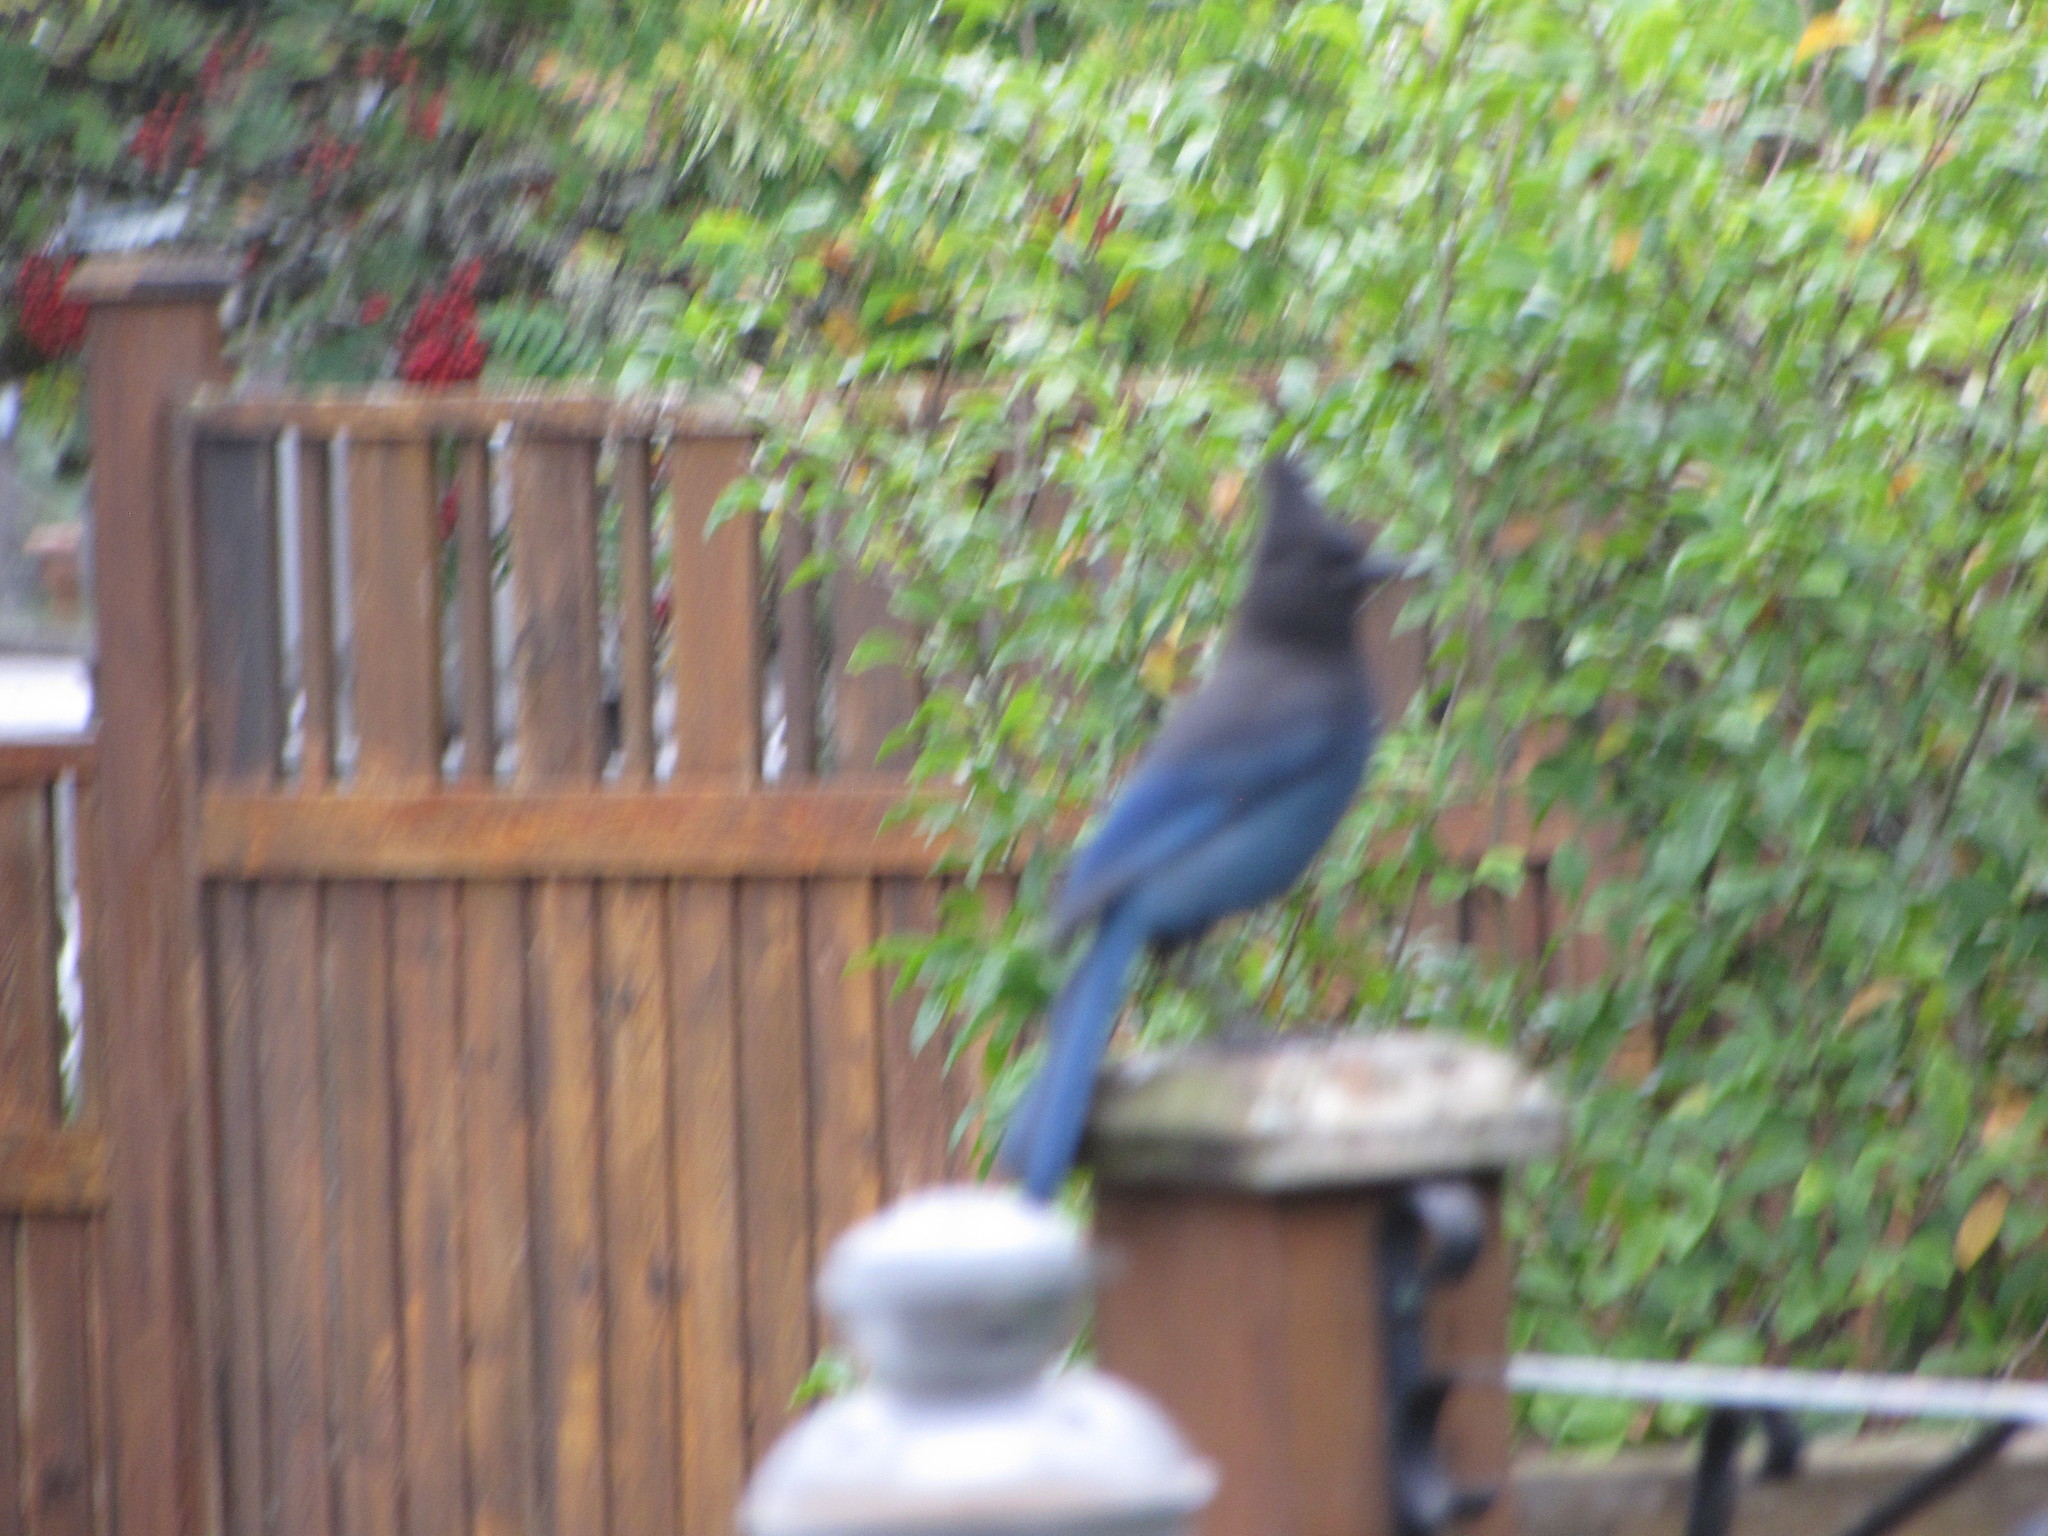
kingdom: Animalia
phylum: Chordata
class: Aves
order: Passeriformes
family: Corvidae
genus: Cyanocitta
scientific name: Cyanocitta stelleri
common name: Steller's jay
